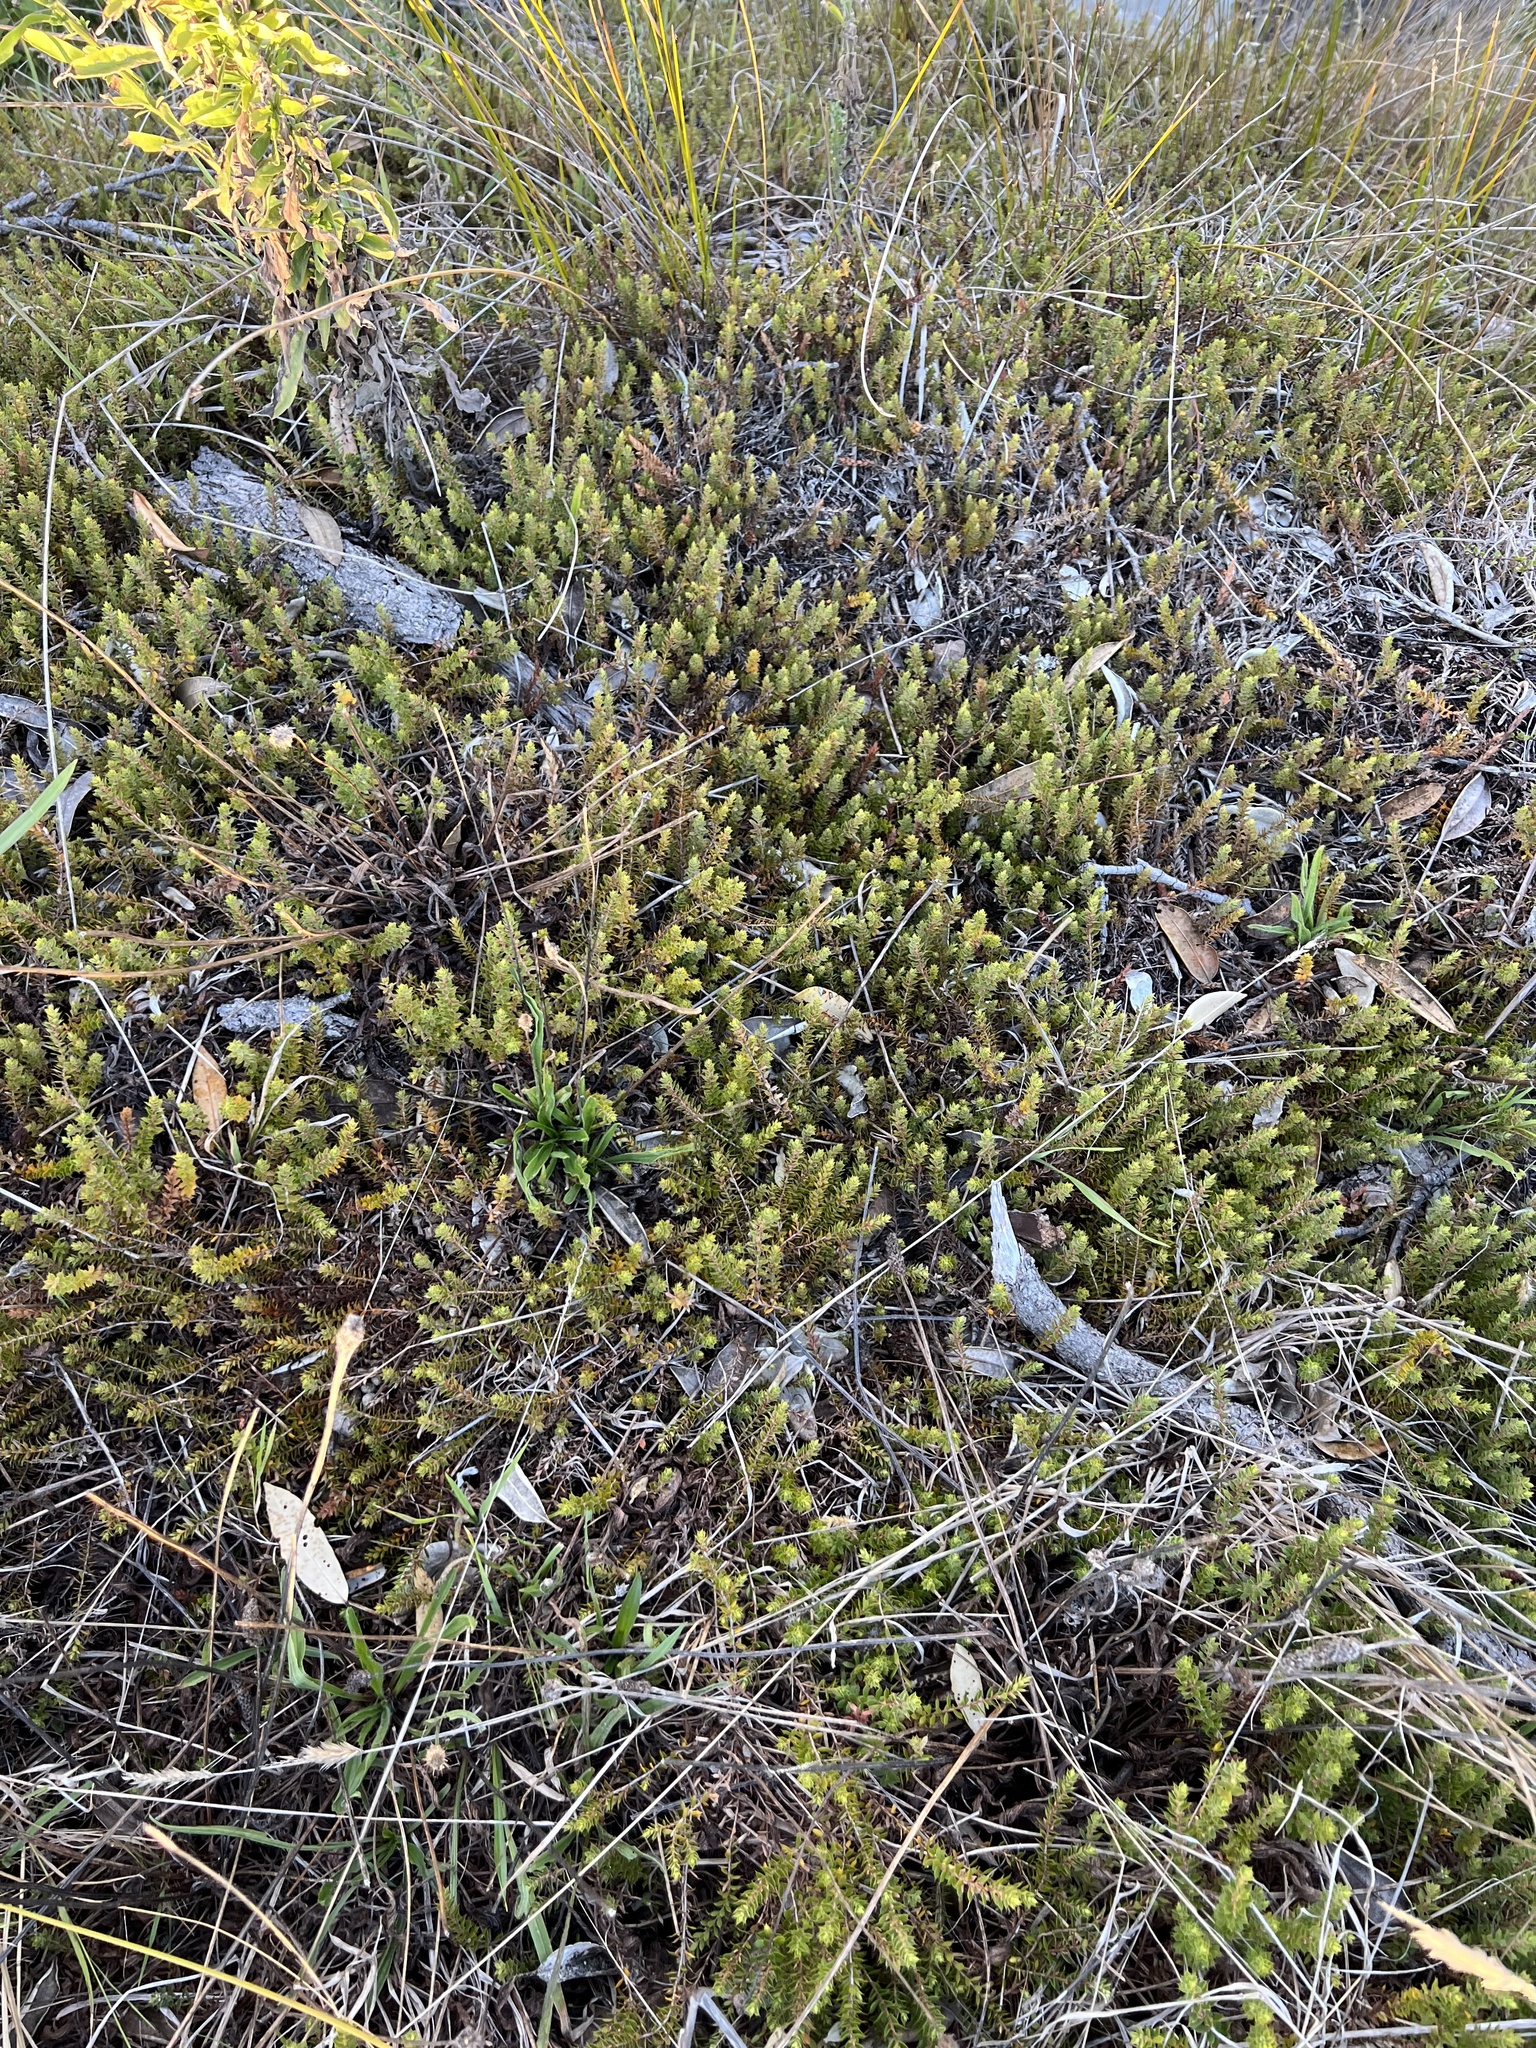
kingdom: Plantae
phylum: Tracheophyta
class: Magnoliopsida
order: Ericales
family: Ericaceae
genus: Styphelia
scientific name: Styphelia nesophila
